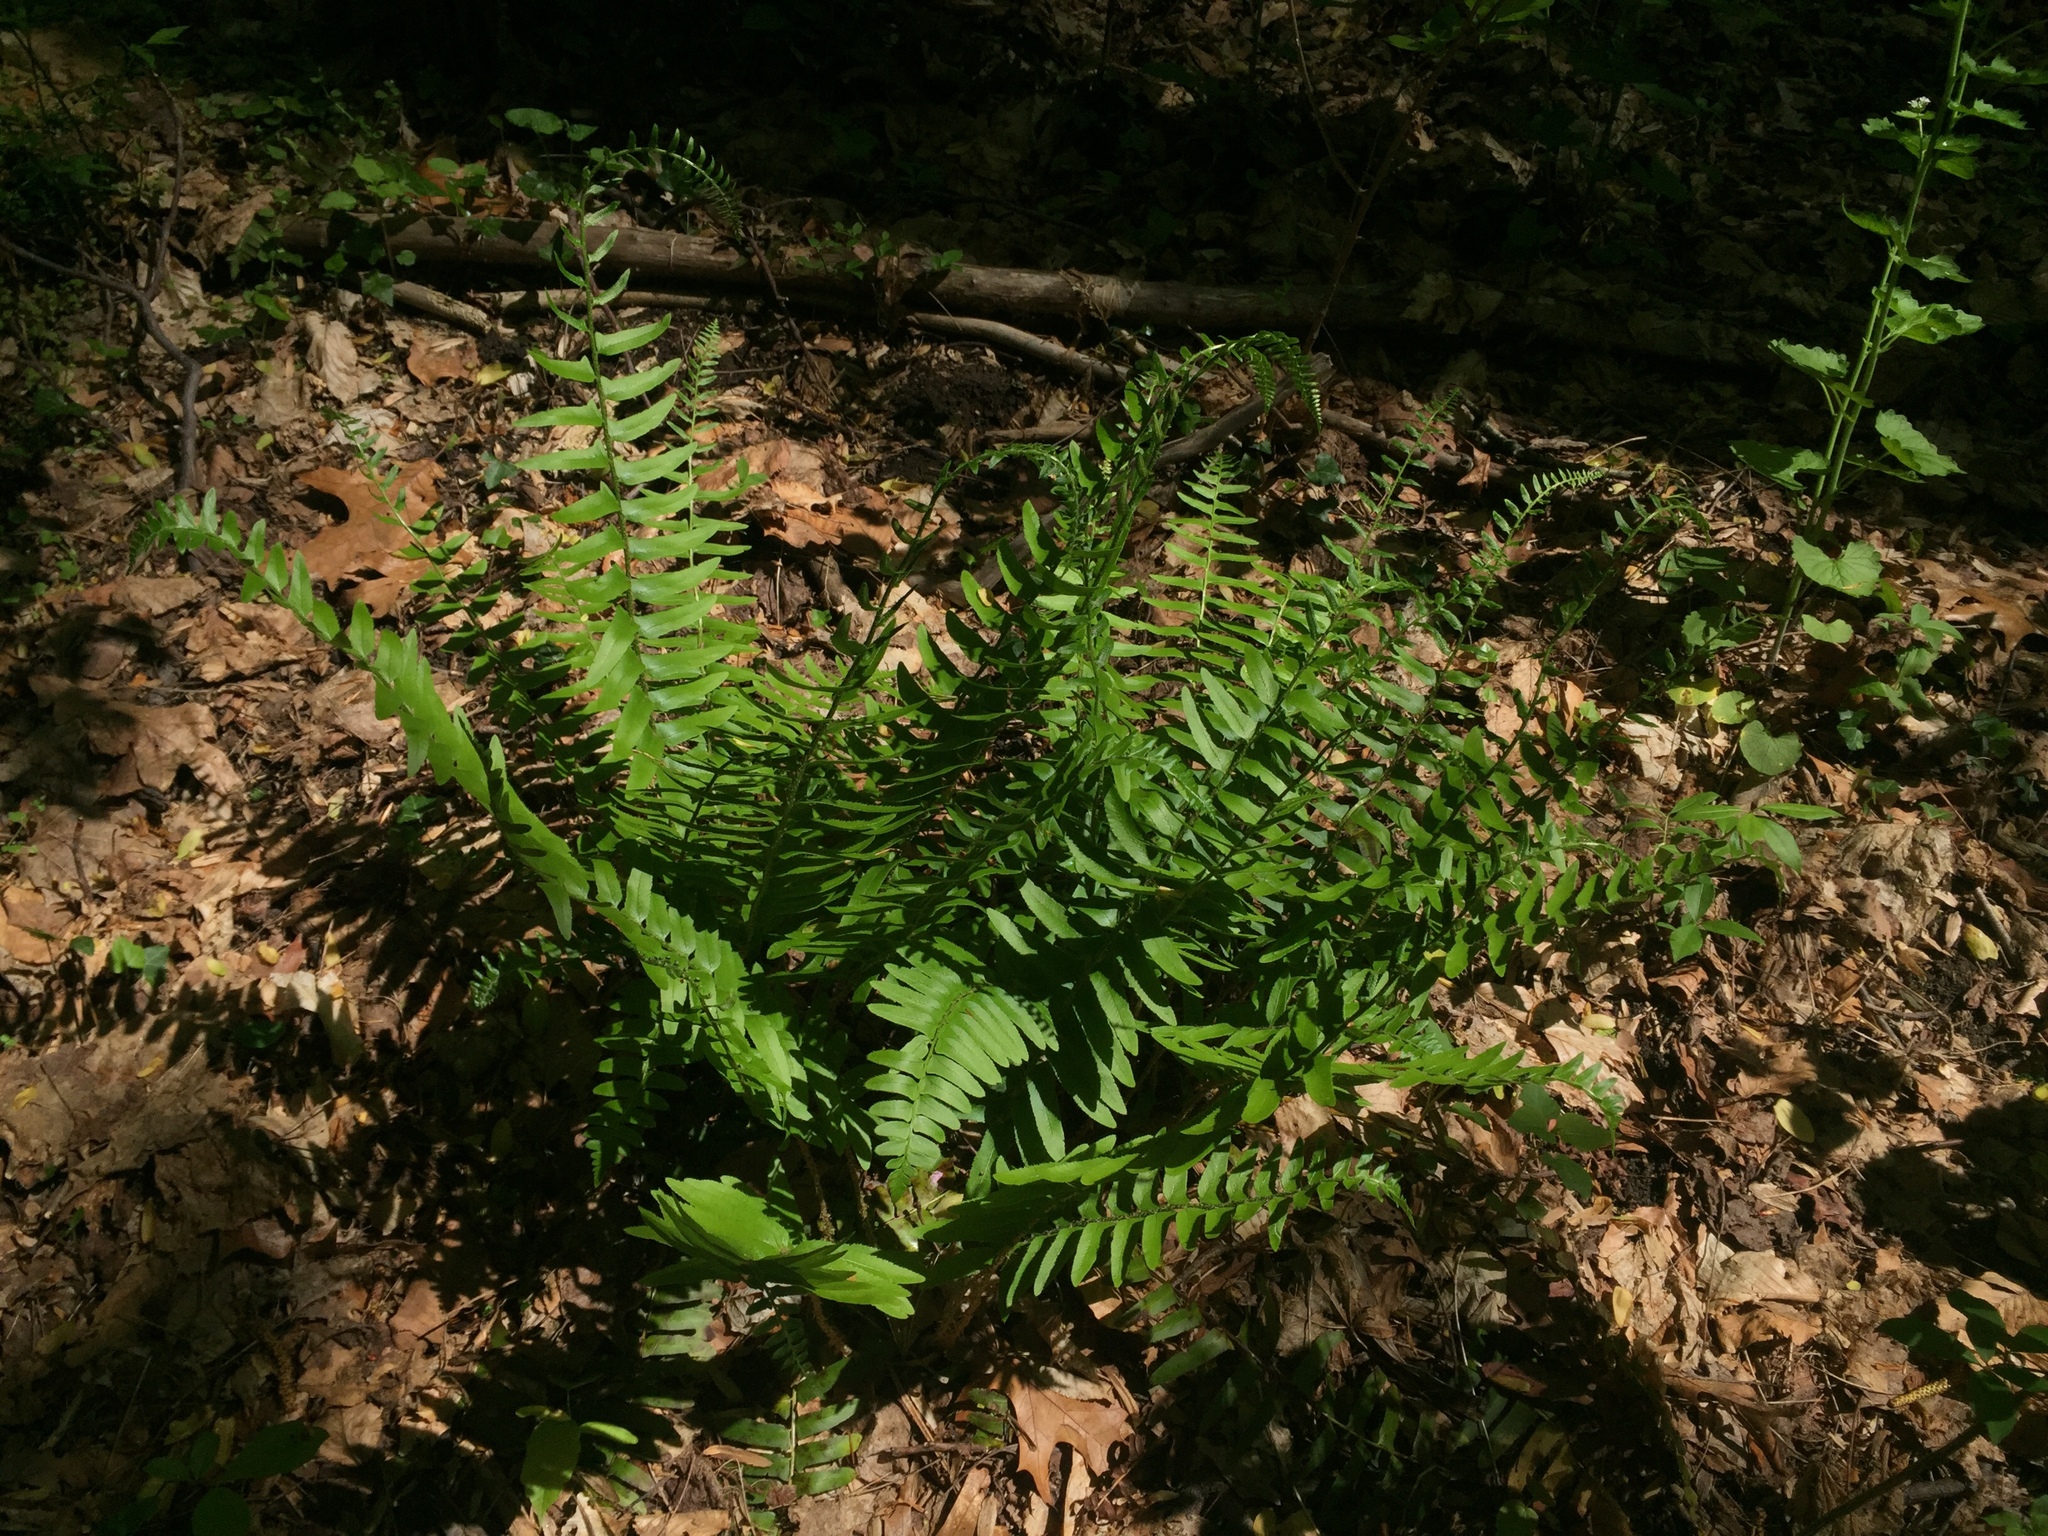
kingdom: Plantae
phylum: Tracheophyta
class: Polypodiopsida
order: Polypodiales
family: Dryopteridaceae
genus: Polystichum
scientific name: Polystichum acrostichoides
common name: Christmas fern
